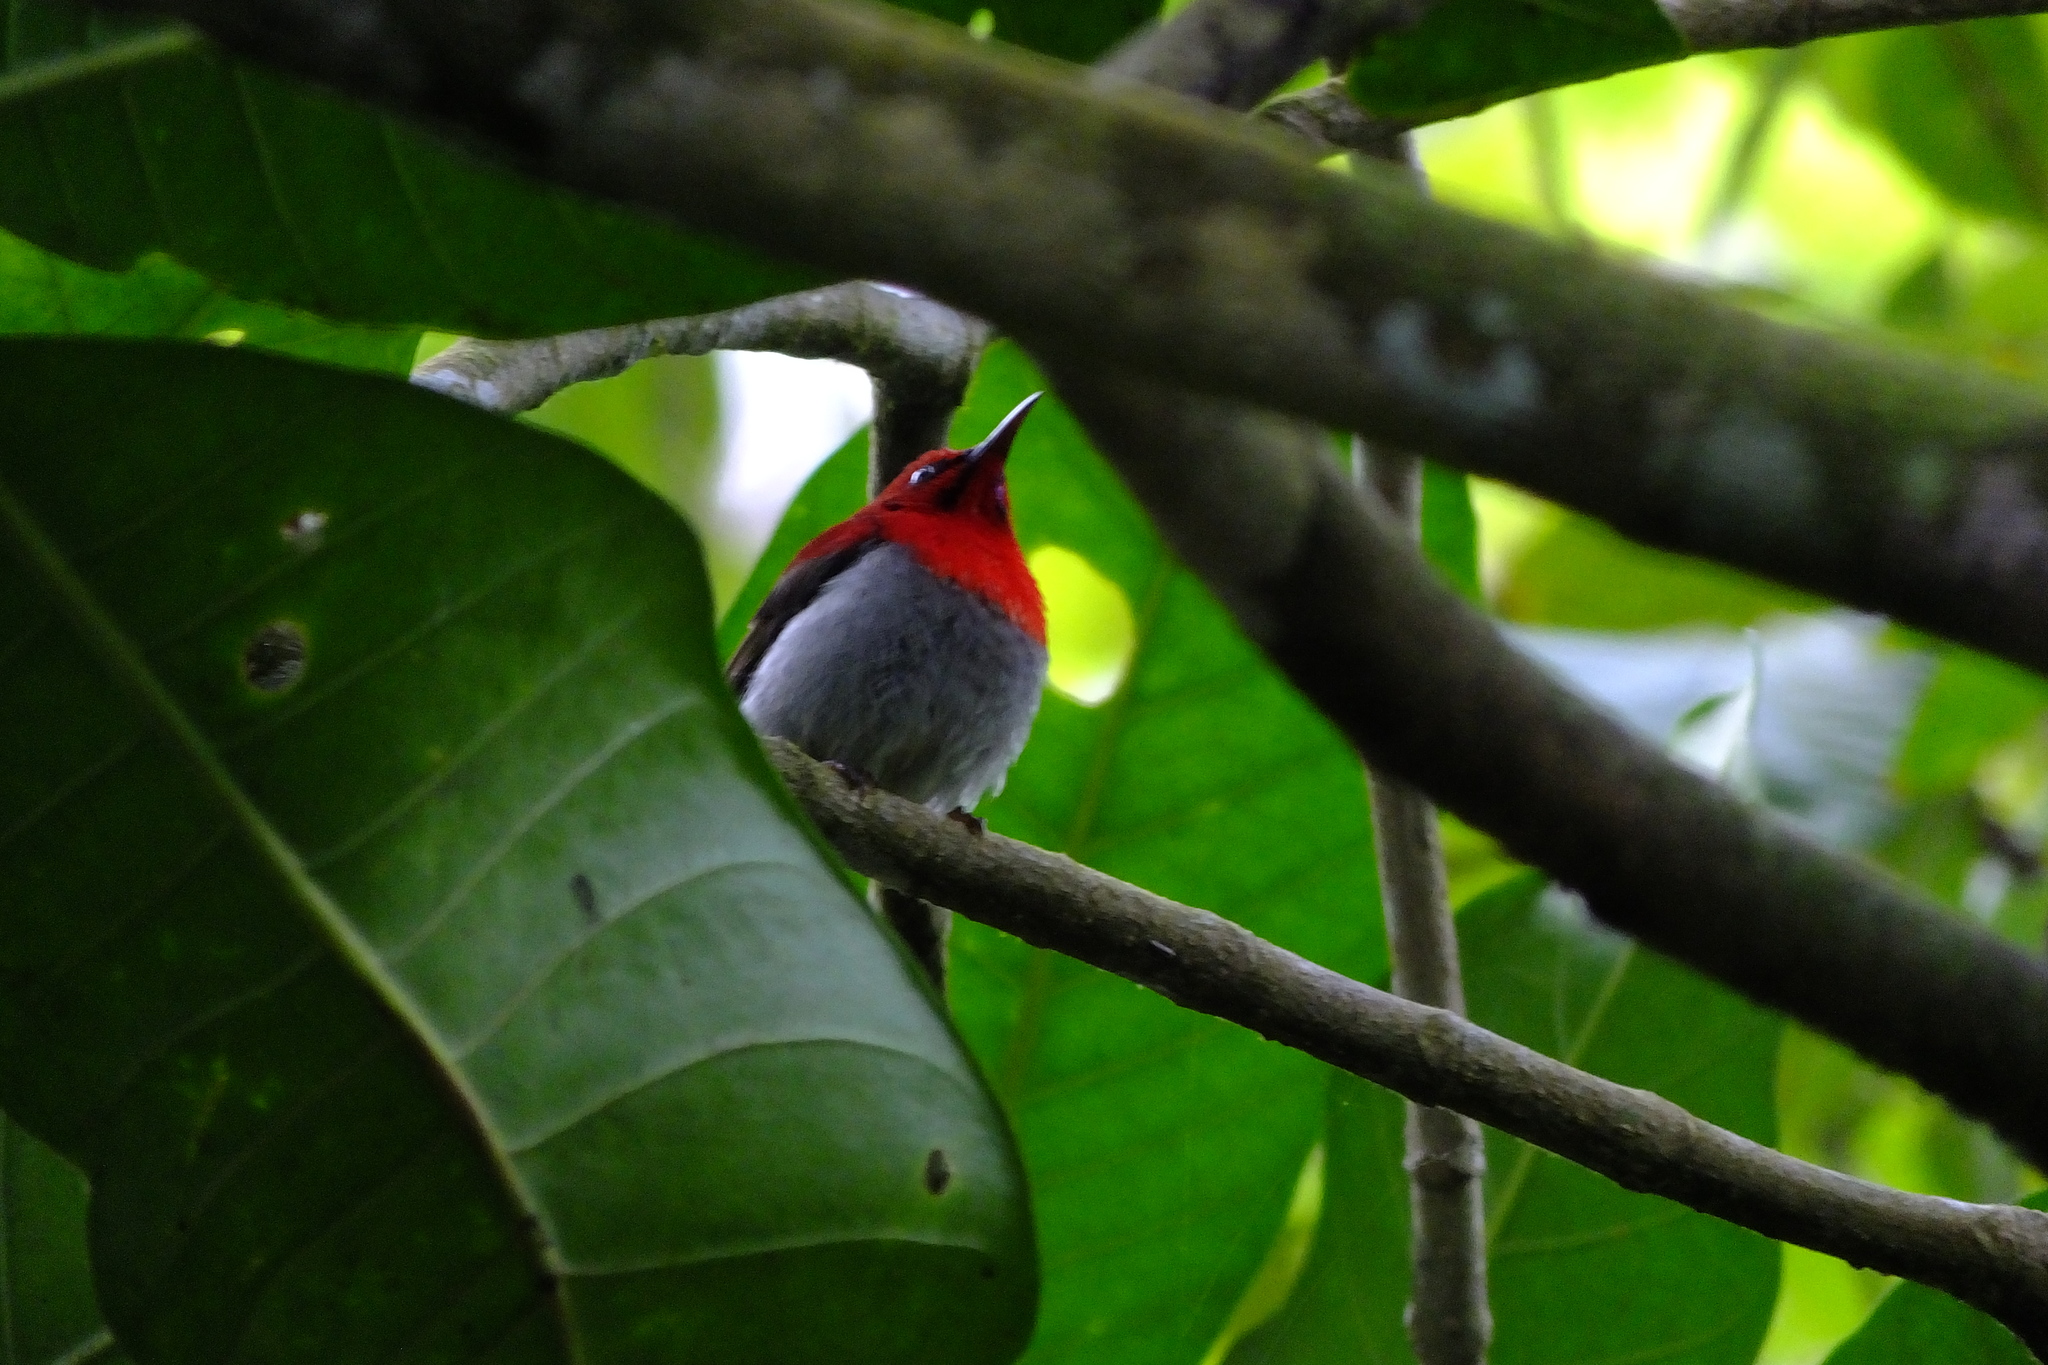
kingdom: Animalia
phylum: Chordata
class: Aves
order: Passeriformes
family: Nectariniidae
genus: Aethopyga
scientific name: Aethopyga mystacalis
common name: Javan sunbird
